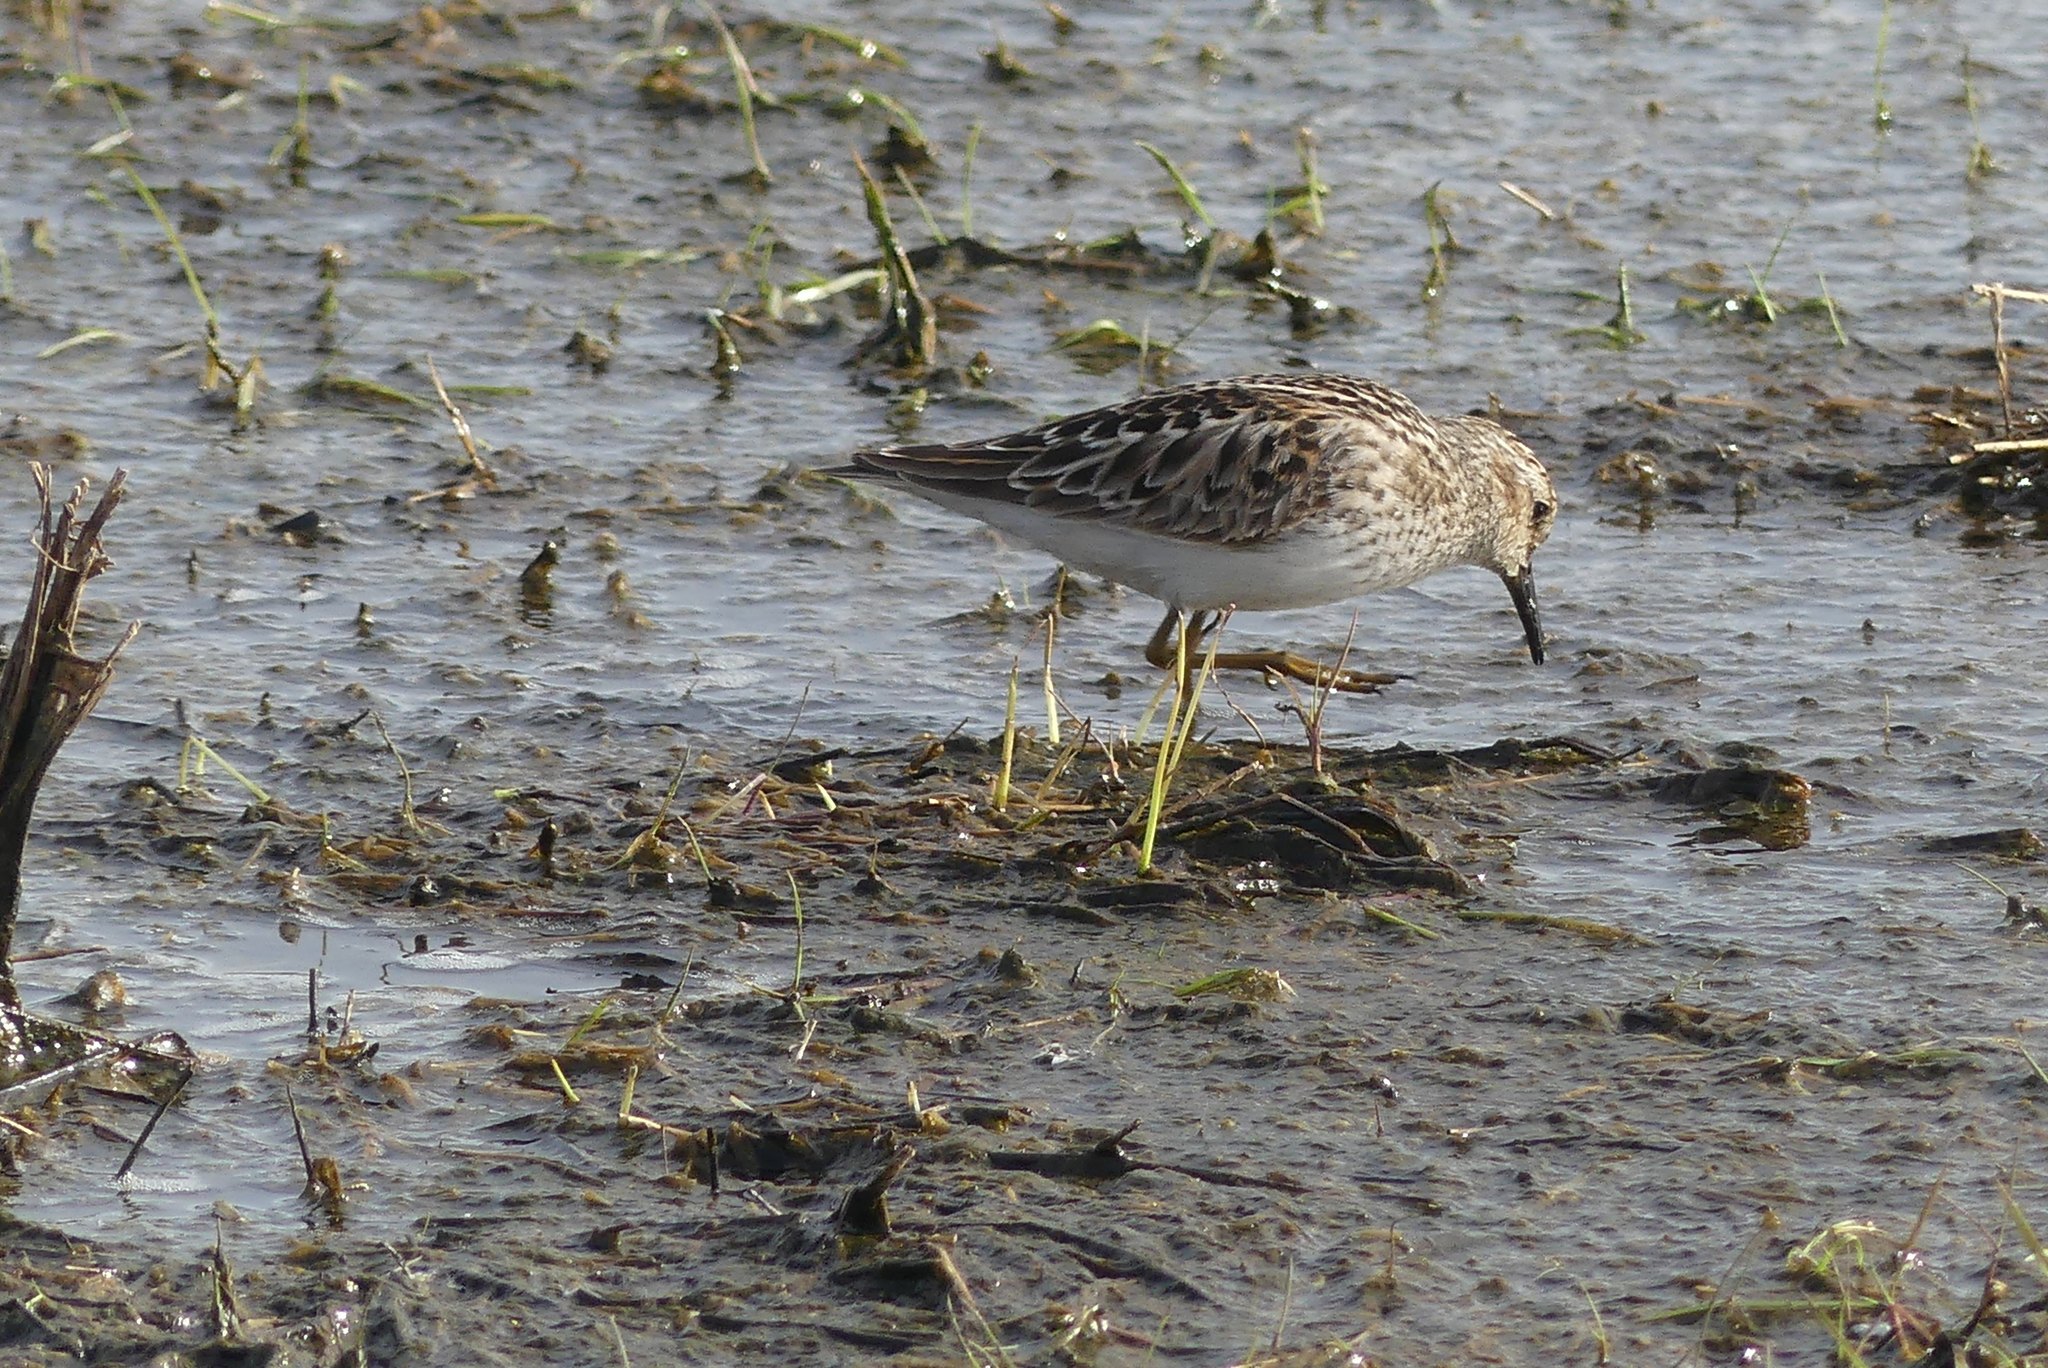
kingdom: Animalia
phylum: Chordata
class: Aves
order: Charadriiformes
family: Scolopacidae
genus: Calidris
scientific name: Calidris minutilla
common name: Least sandpiper
